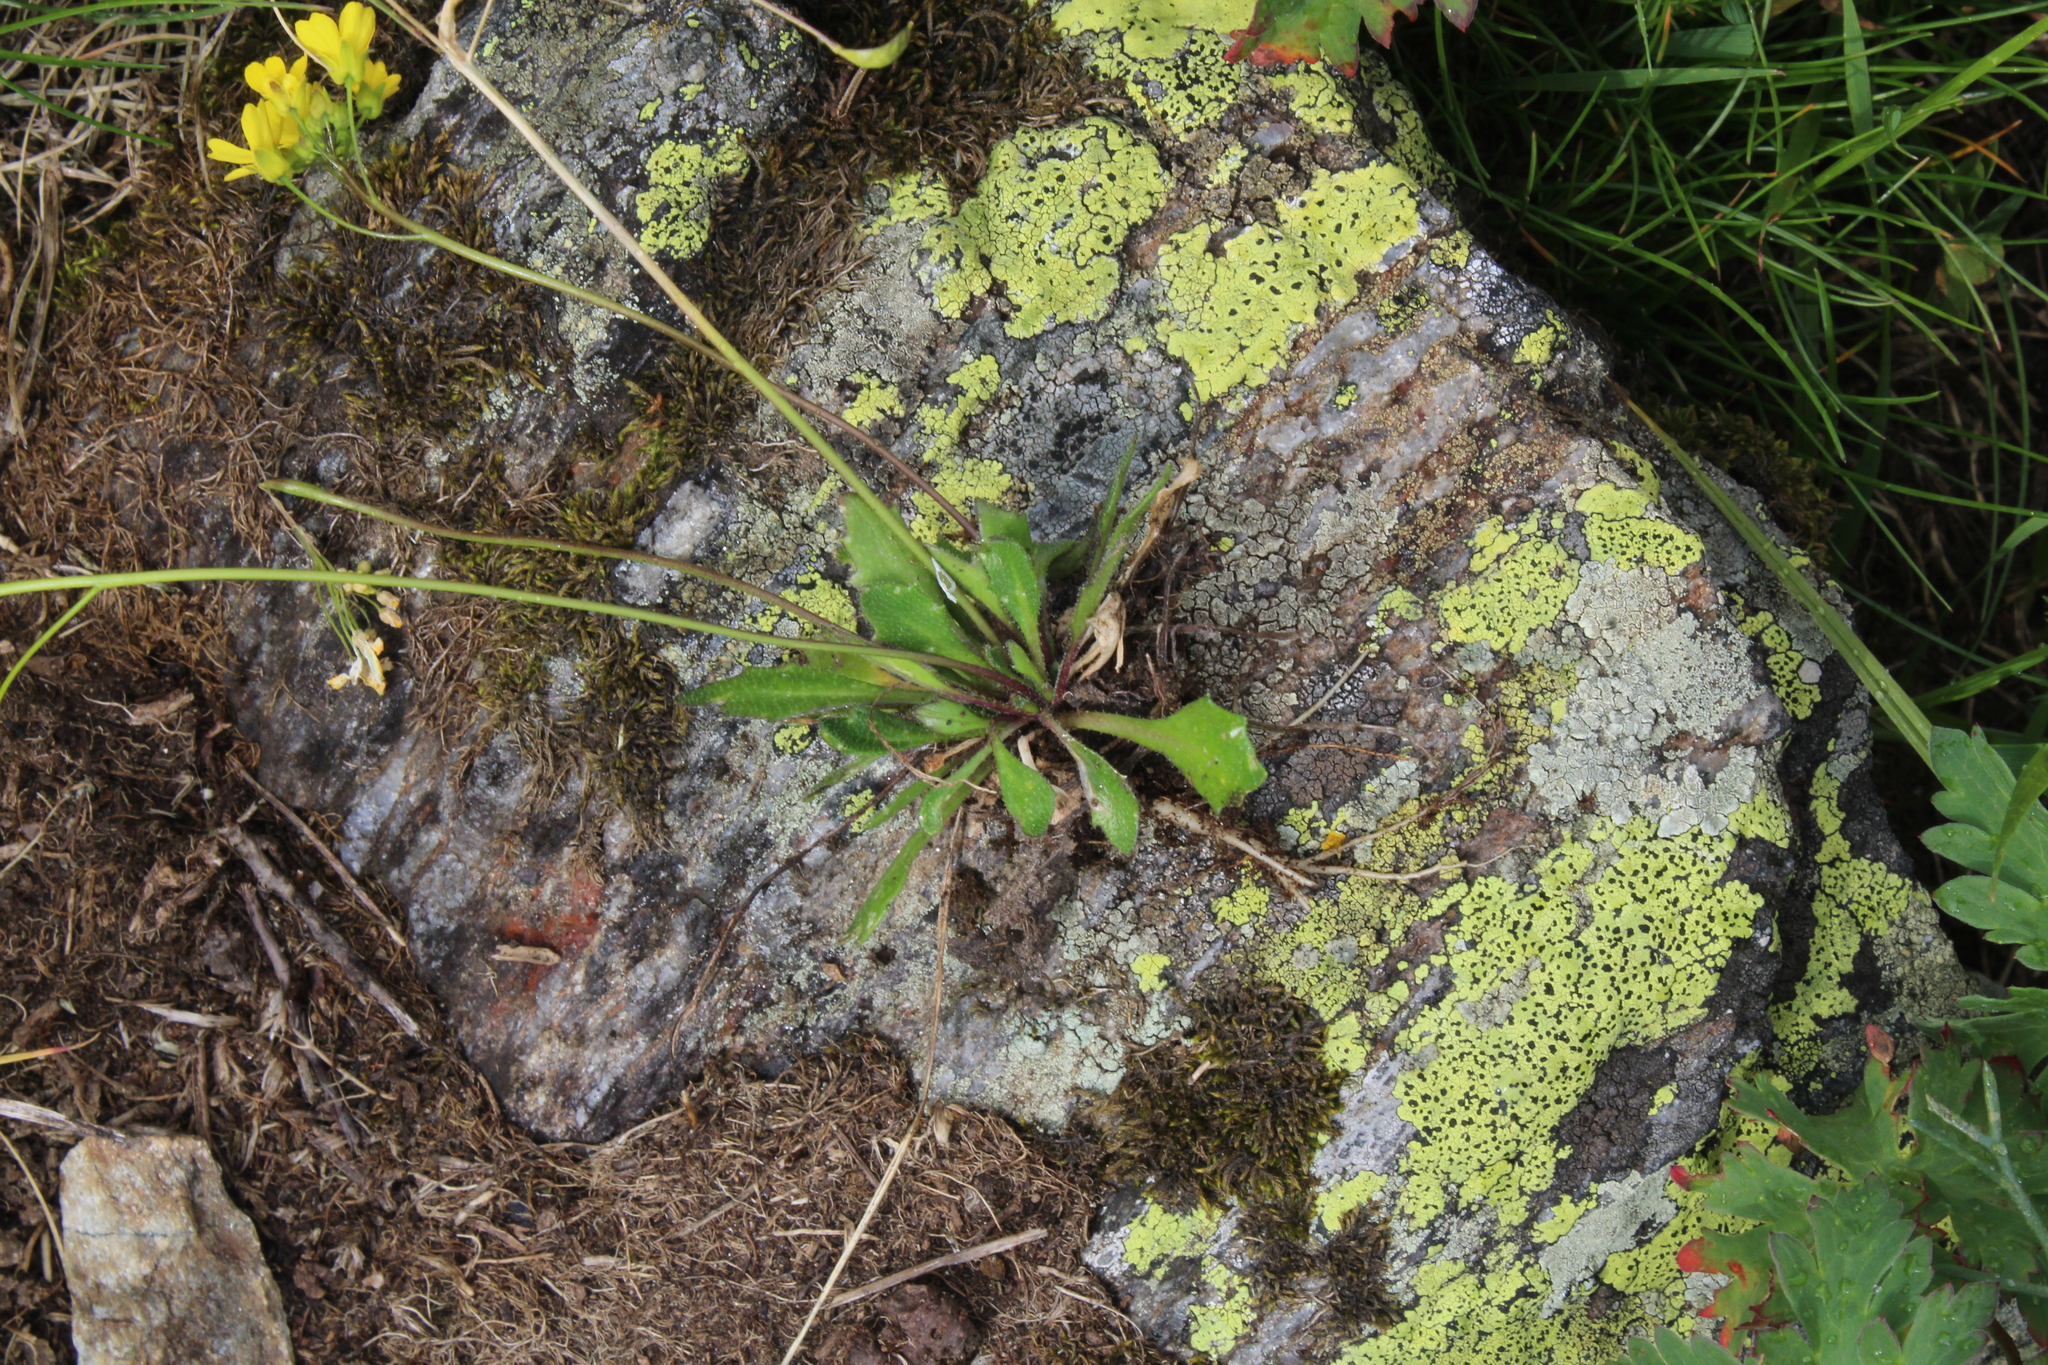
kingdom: Plantae
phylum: Tracheophyta
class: Magnoliopsida
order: Brassicales
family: Brassicaceae
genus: Draba
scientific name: Draba hispida
